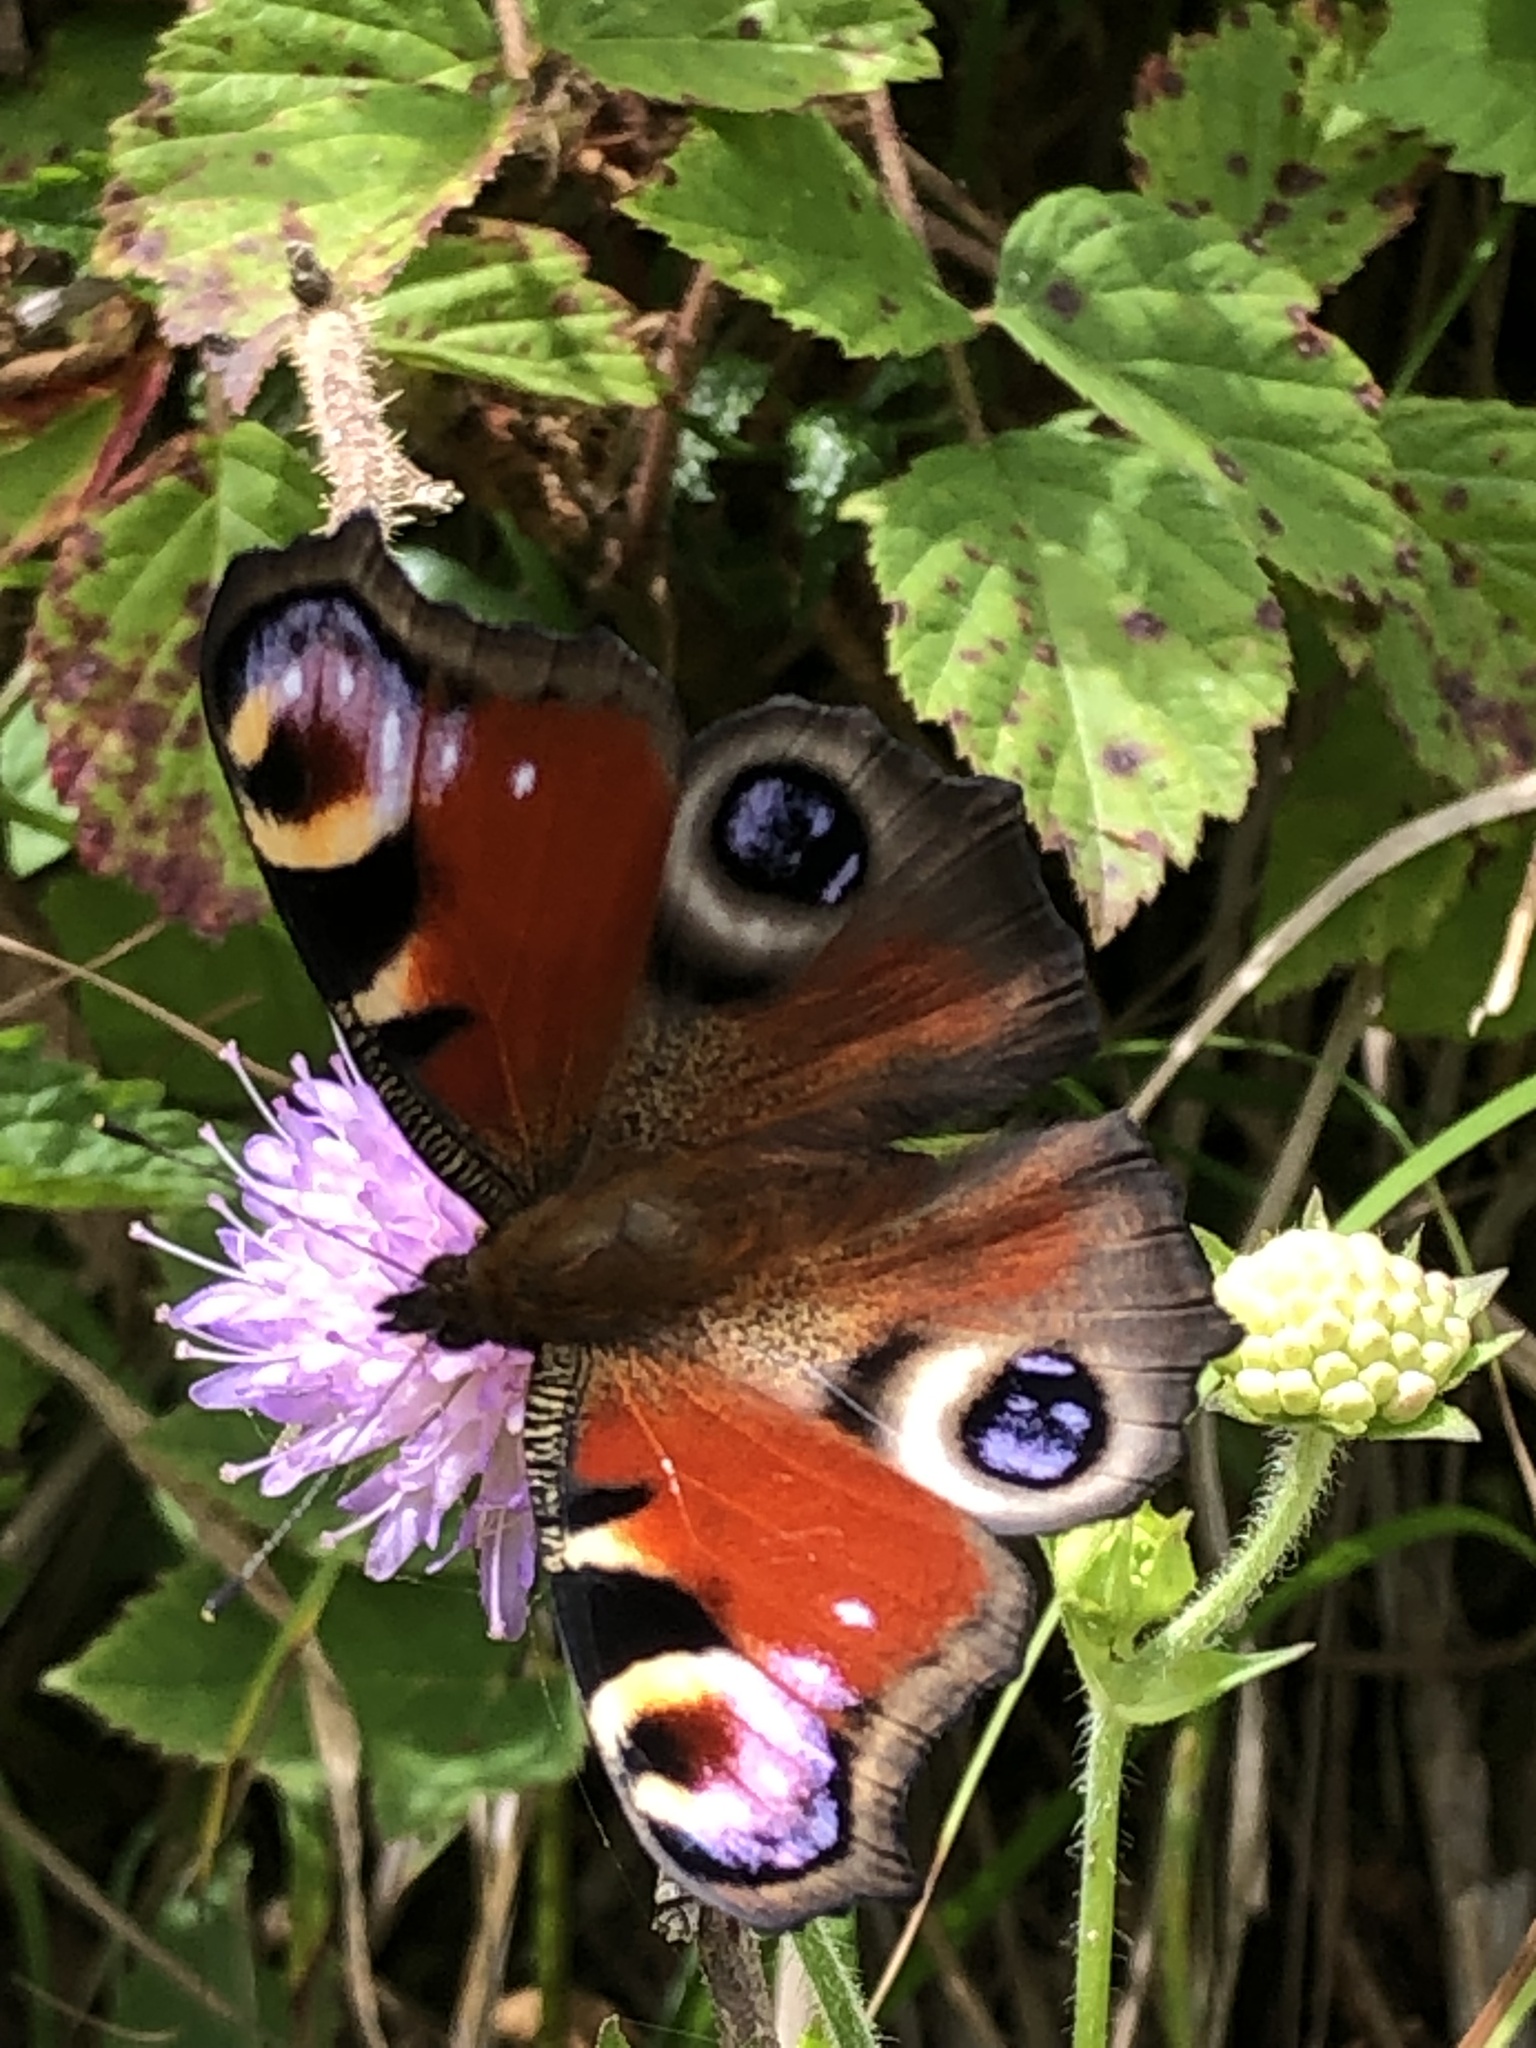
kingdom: Animalia
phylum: Arthropoda
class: Insecta
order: Lepidoptera
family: Nymphalidae
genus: Aglais
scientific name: Aglais io
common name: Peacock
